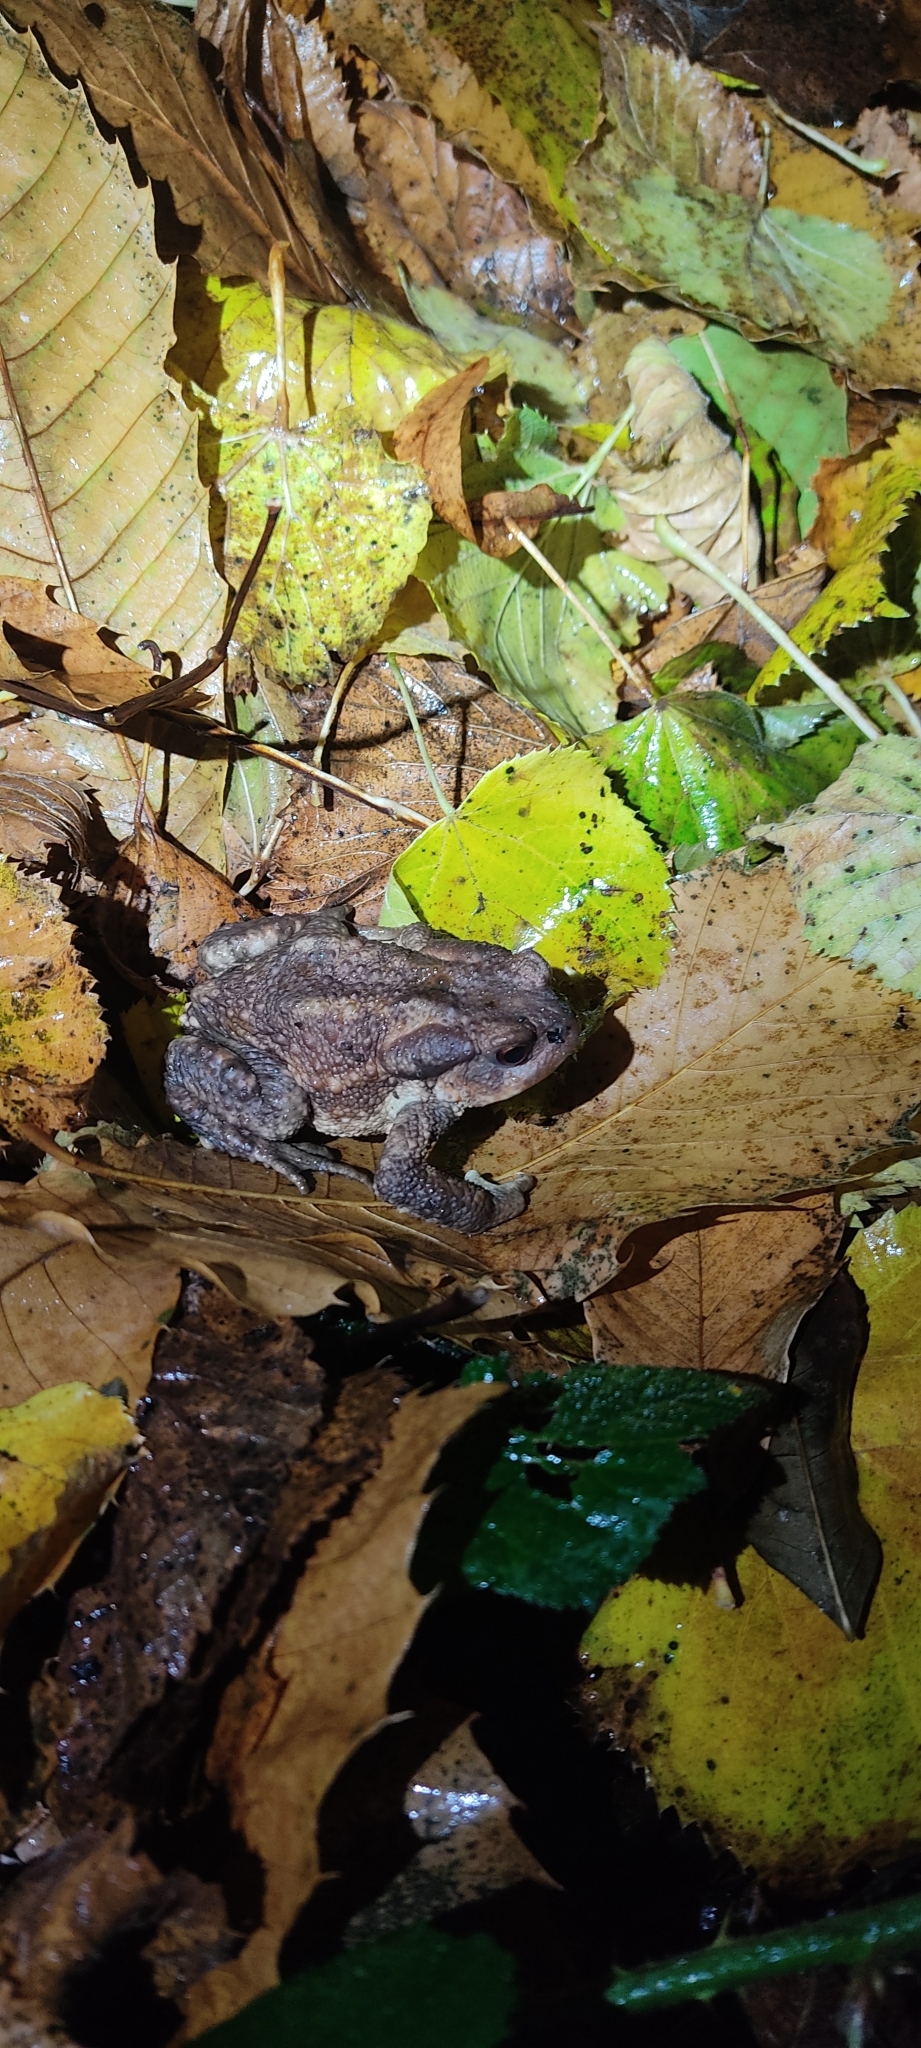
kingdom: Animalia
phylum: Chordata
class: Amphibia
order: Anura
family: Bufonidae
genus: Bufo
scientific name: Bufo spinosus
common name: Western common toad
